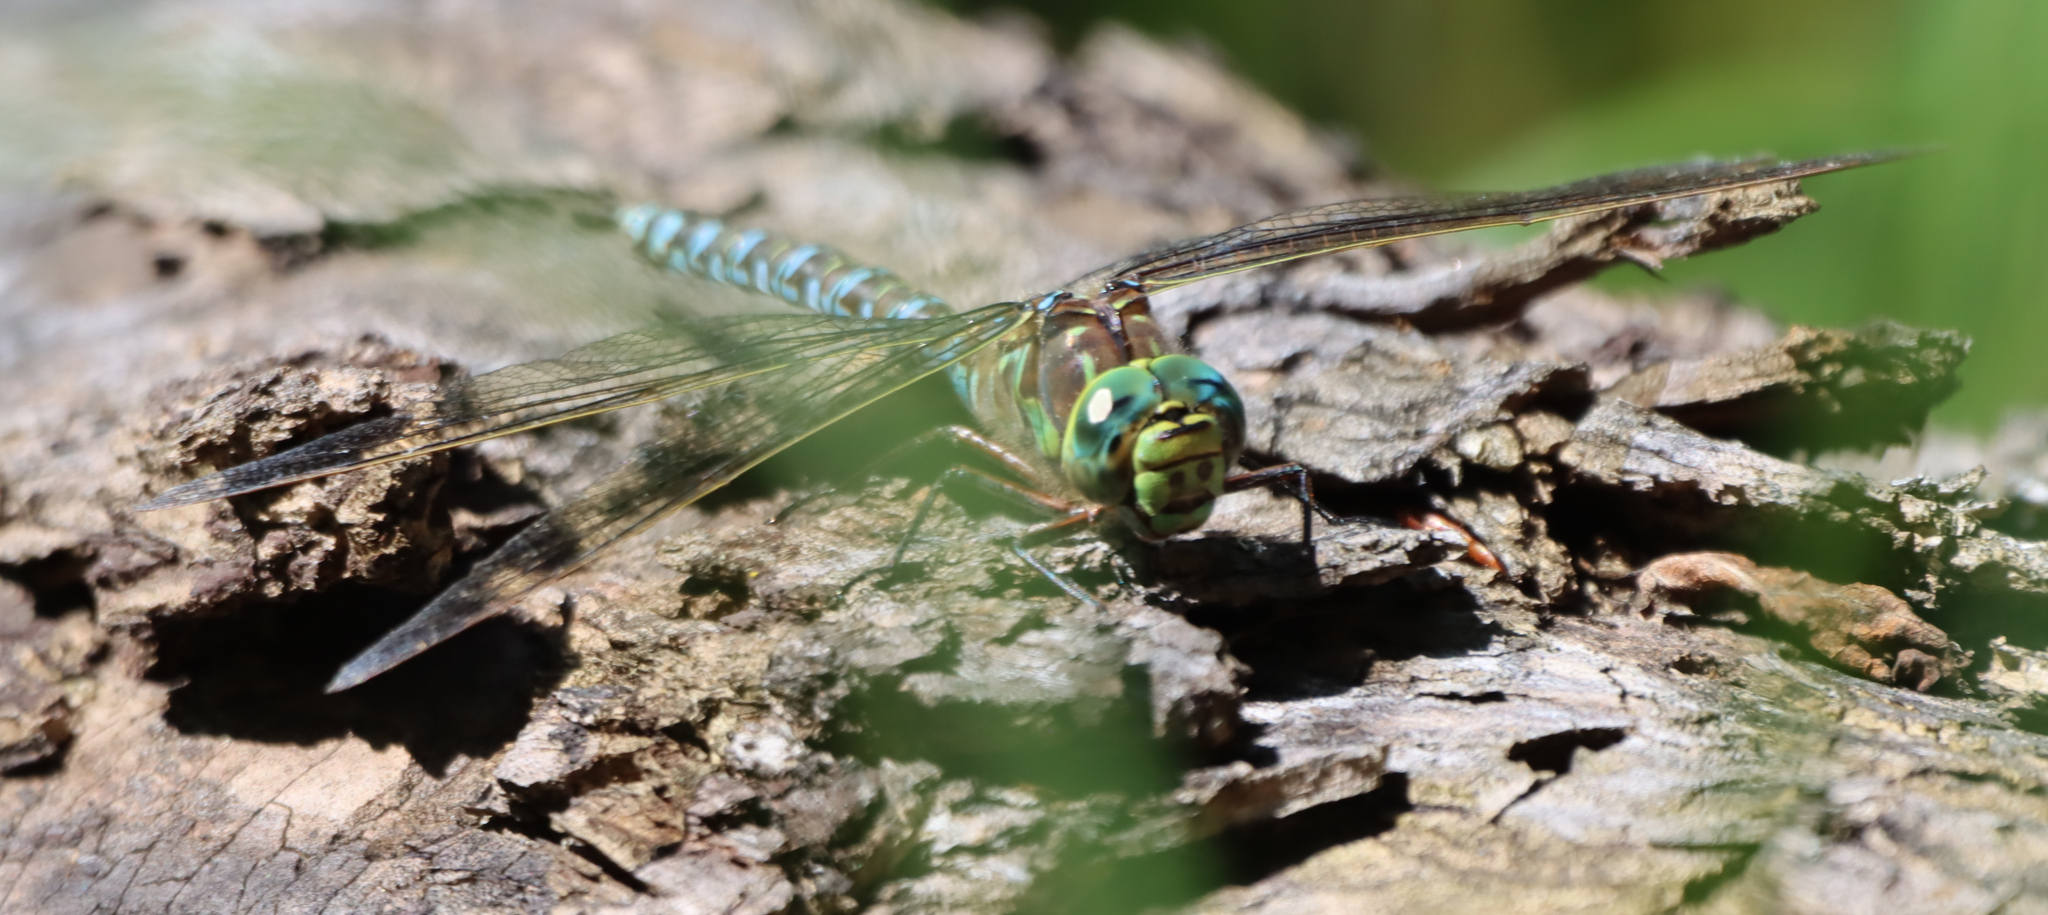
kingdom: Animalia
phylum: Arthropoda
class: Insecta
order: Odonata
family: Aeshnidae
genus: Aeshna
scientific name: Aeshna eremita
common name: Lake darner
